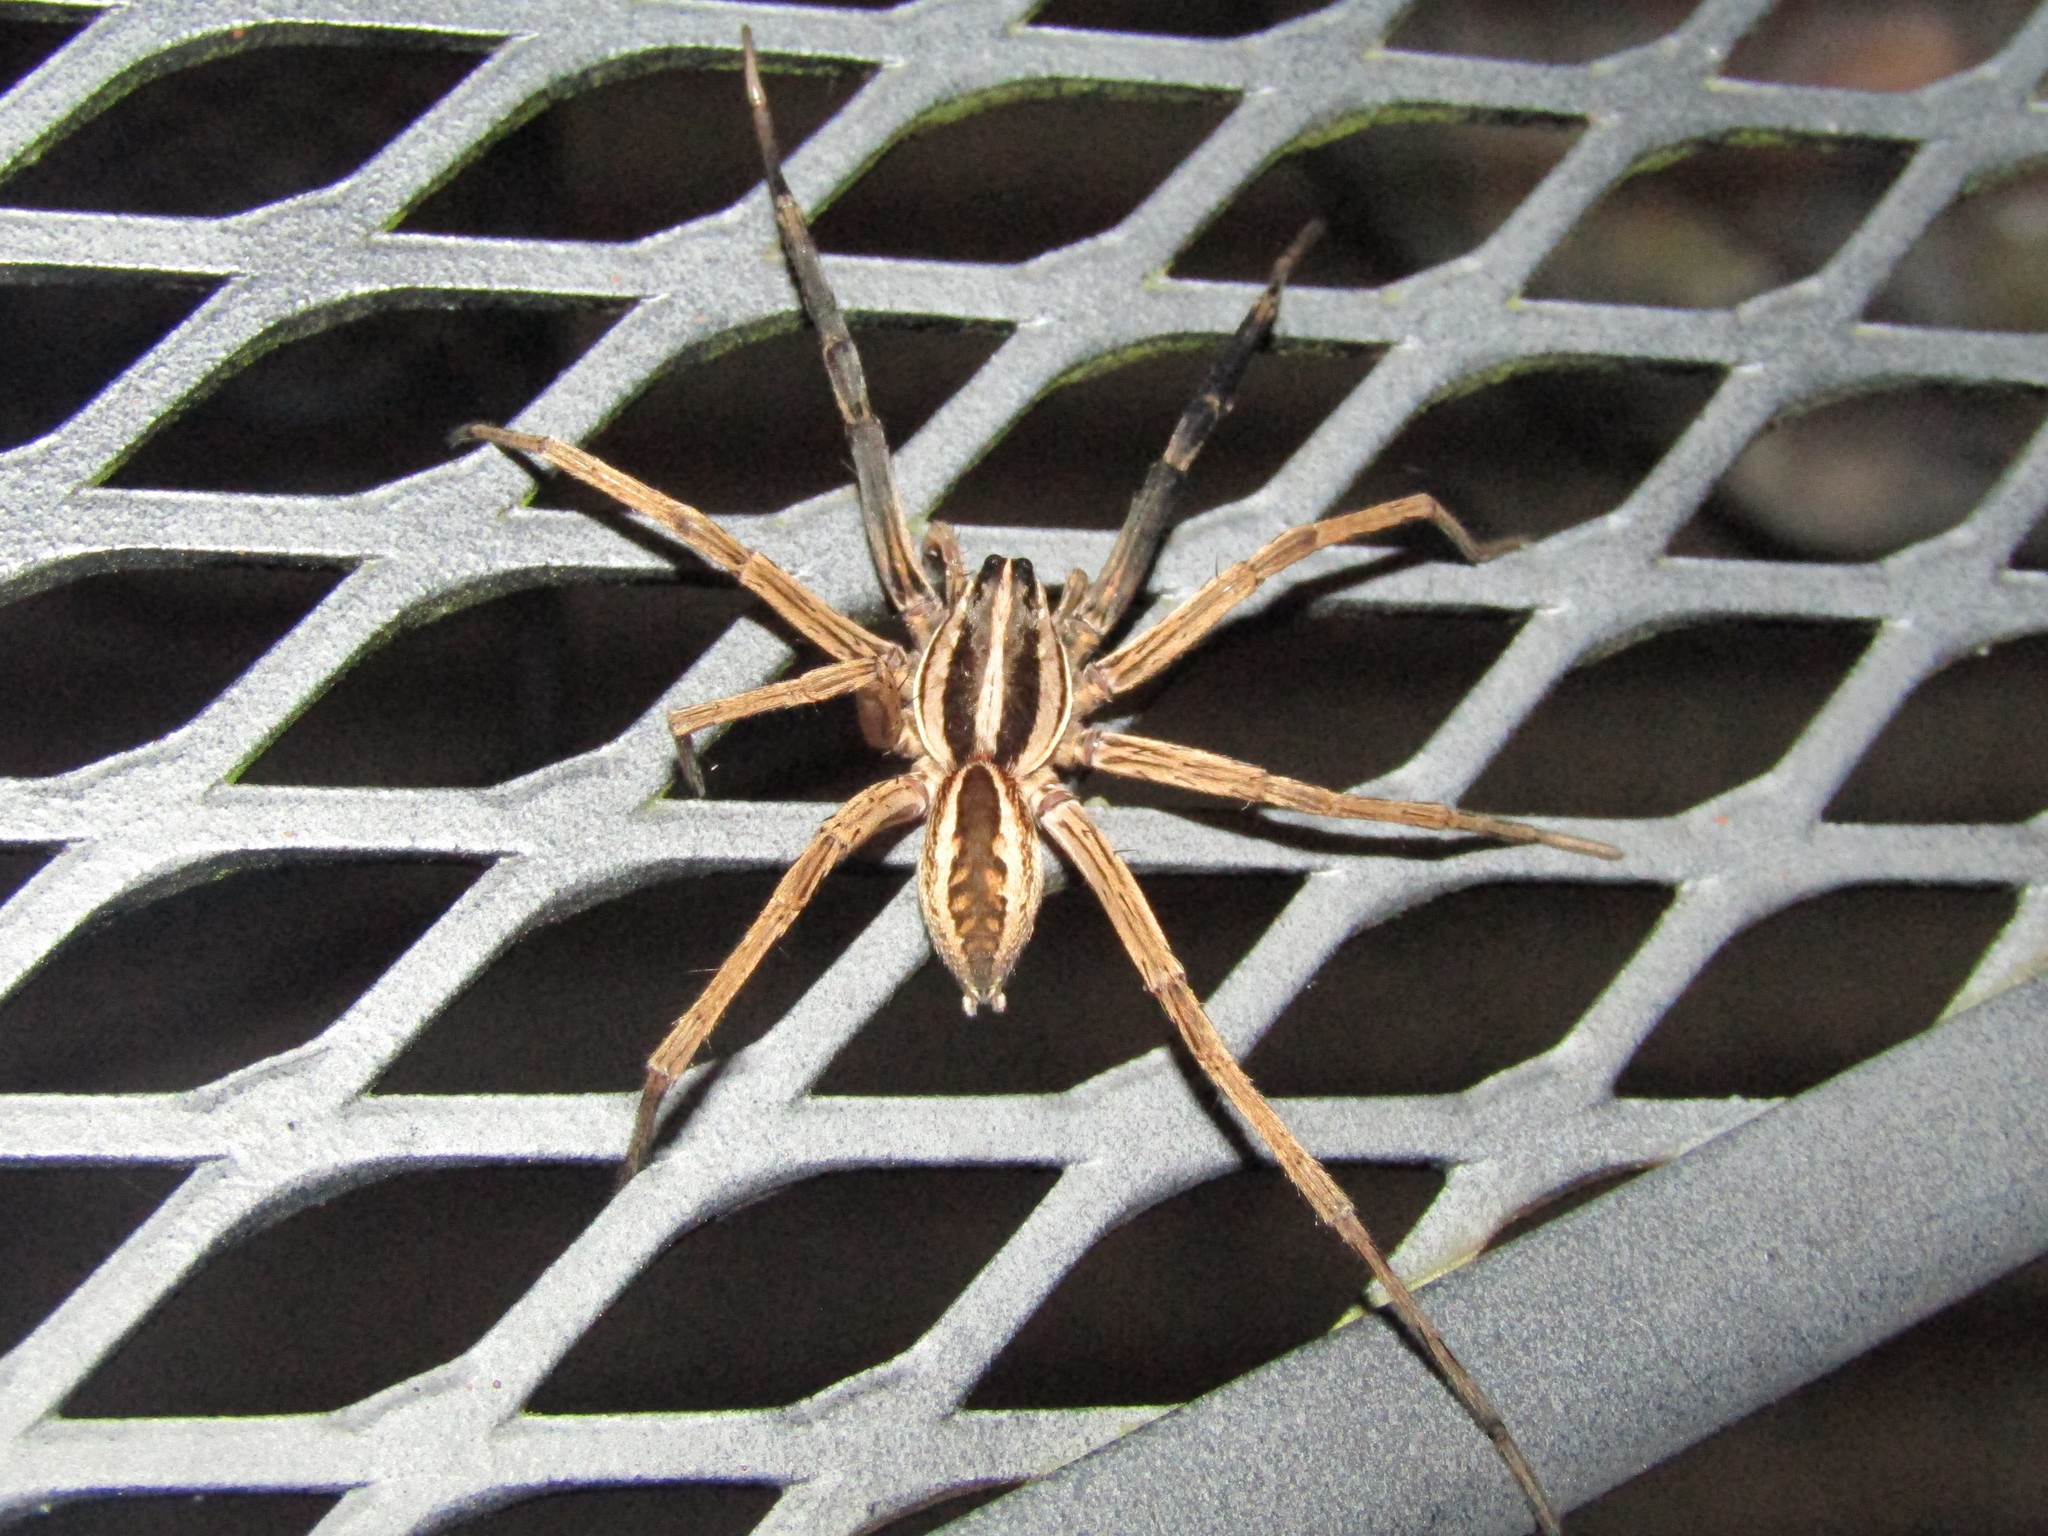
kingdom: Animalia
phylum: Arthropoda
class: Arachnida
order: Araneae
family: Lycosidae
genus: Rabidosa
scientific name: Rabidosa rabida
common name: Rabid wolf spider
